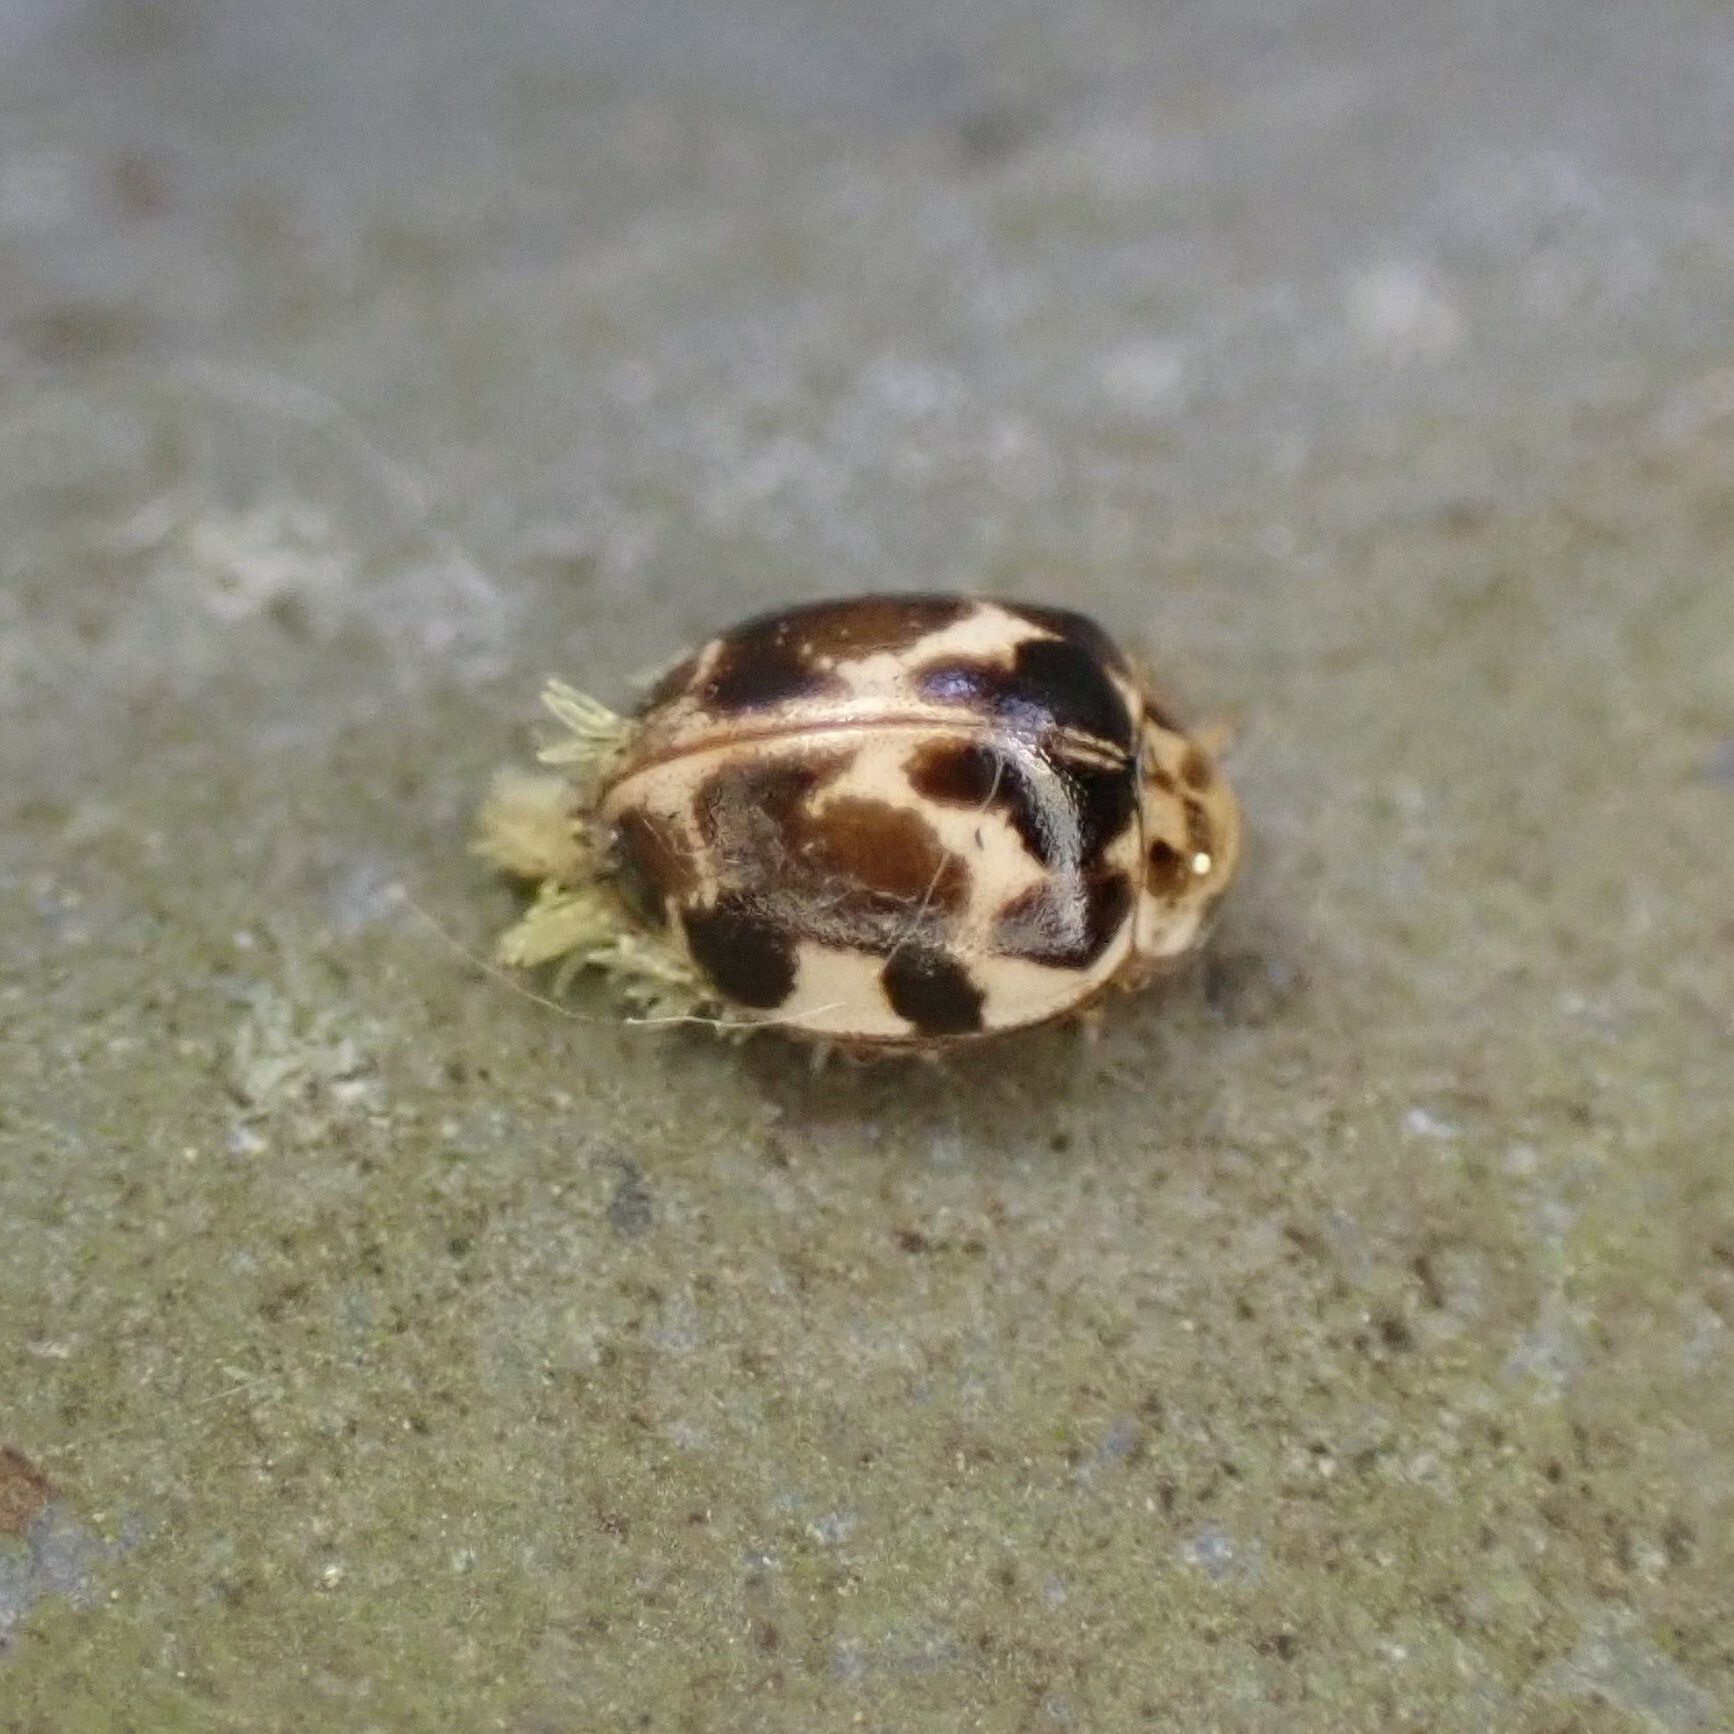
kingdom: Fungi
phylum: Ascomycota
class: Laboulbeniomycetes
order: Laboulbeniales
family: Laboulbeniaceae
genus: Hesperomyces
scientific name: Hesperomyces
